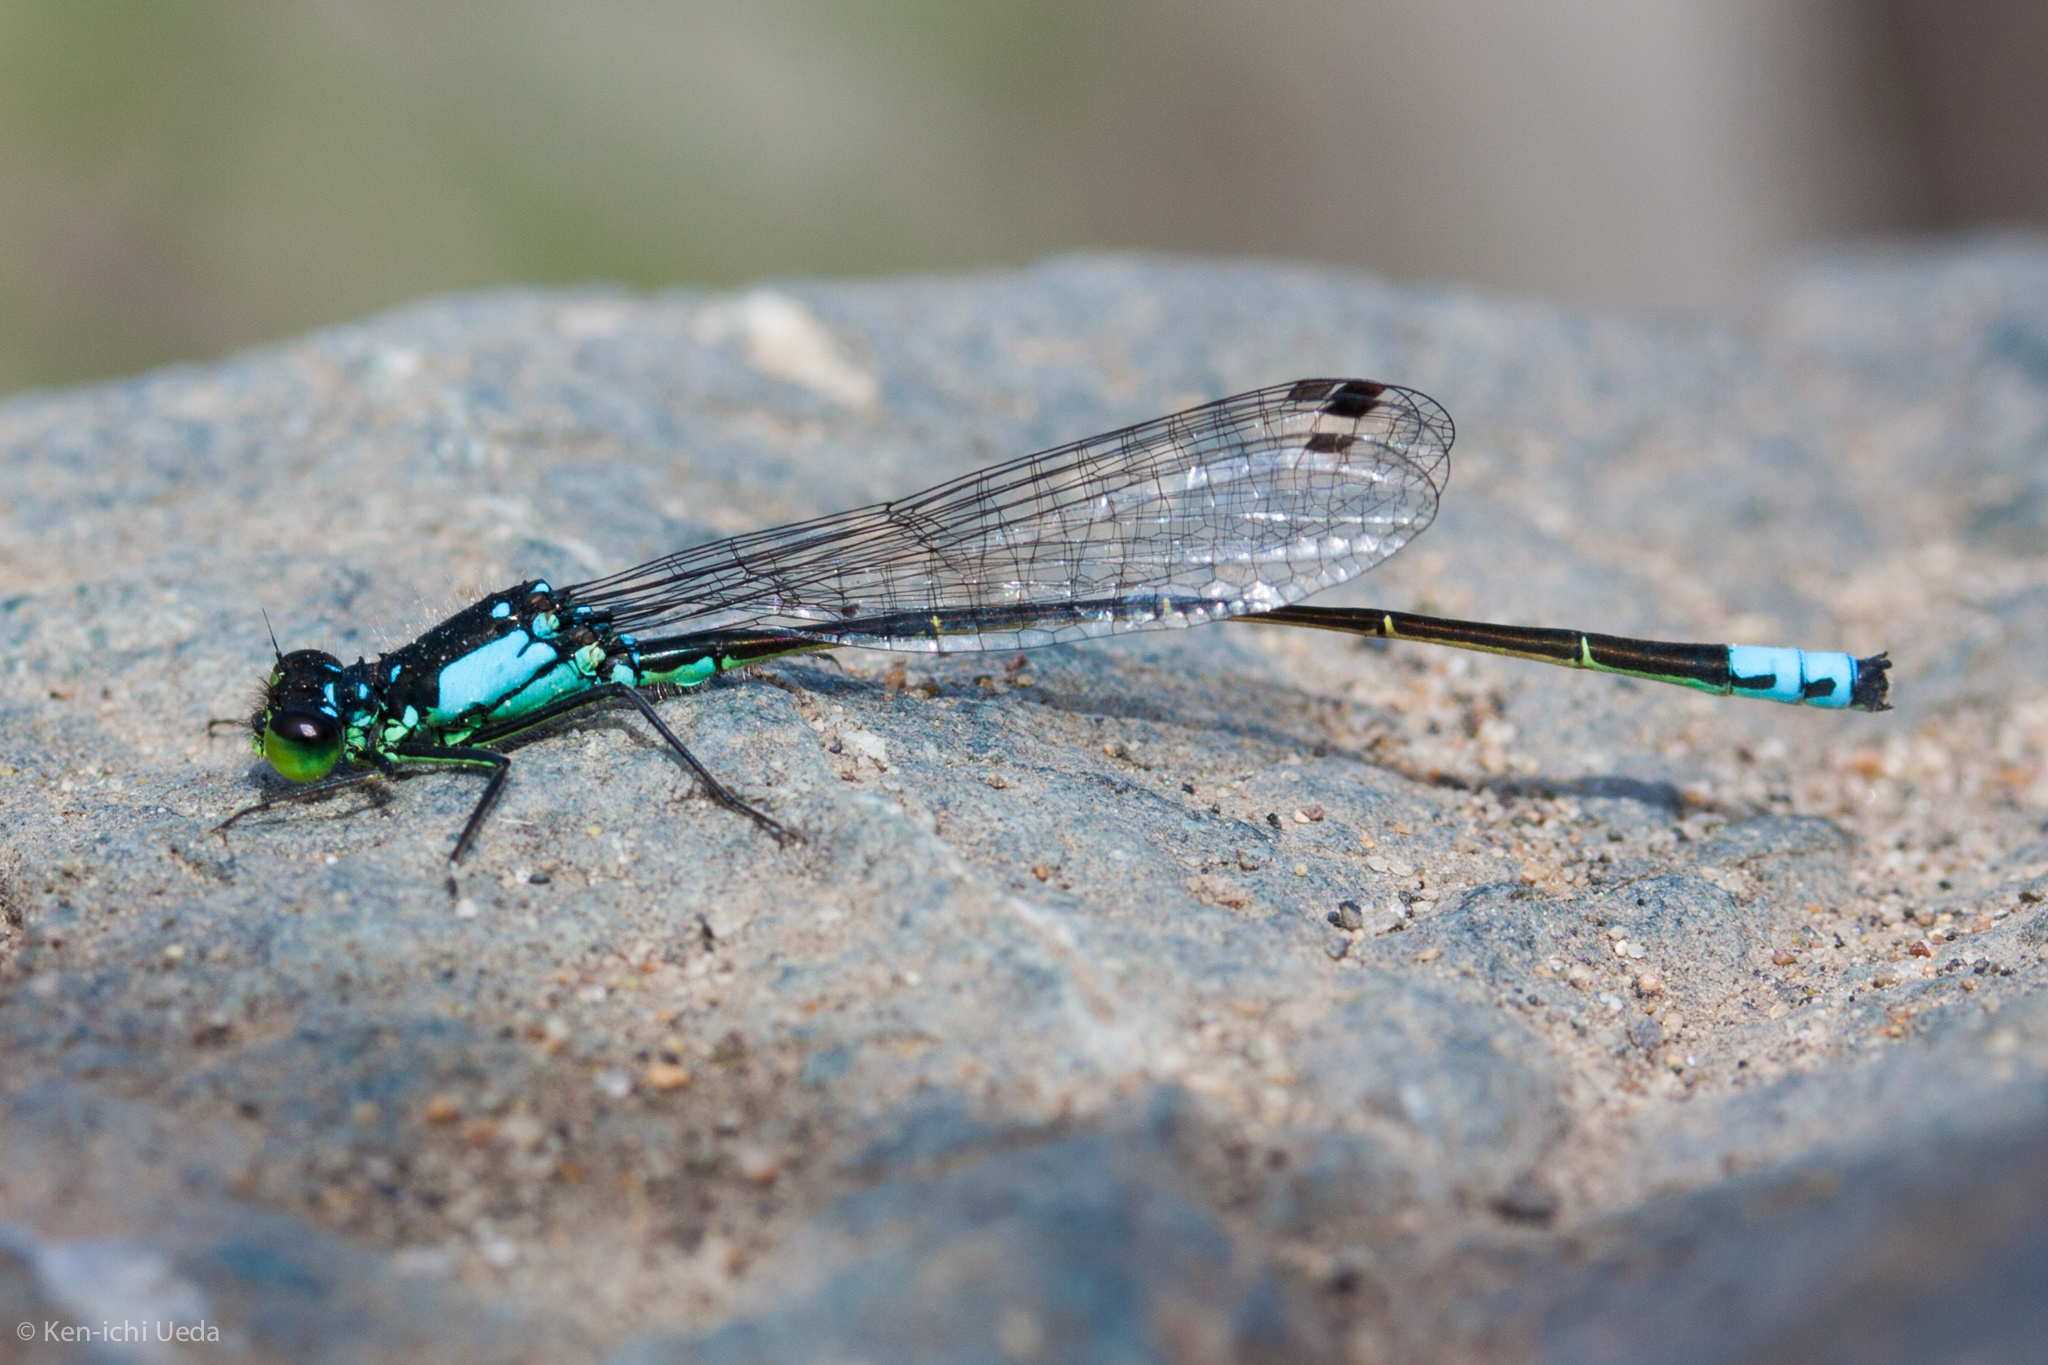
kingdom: Animalia
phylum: Arthropoda
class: Insecta
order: Odonata
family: Coenagrionidae
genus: Ischnura
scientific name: Ischnura cervula
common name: Pacific forktail
